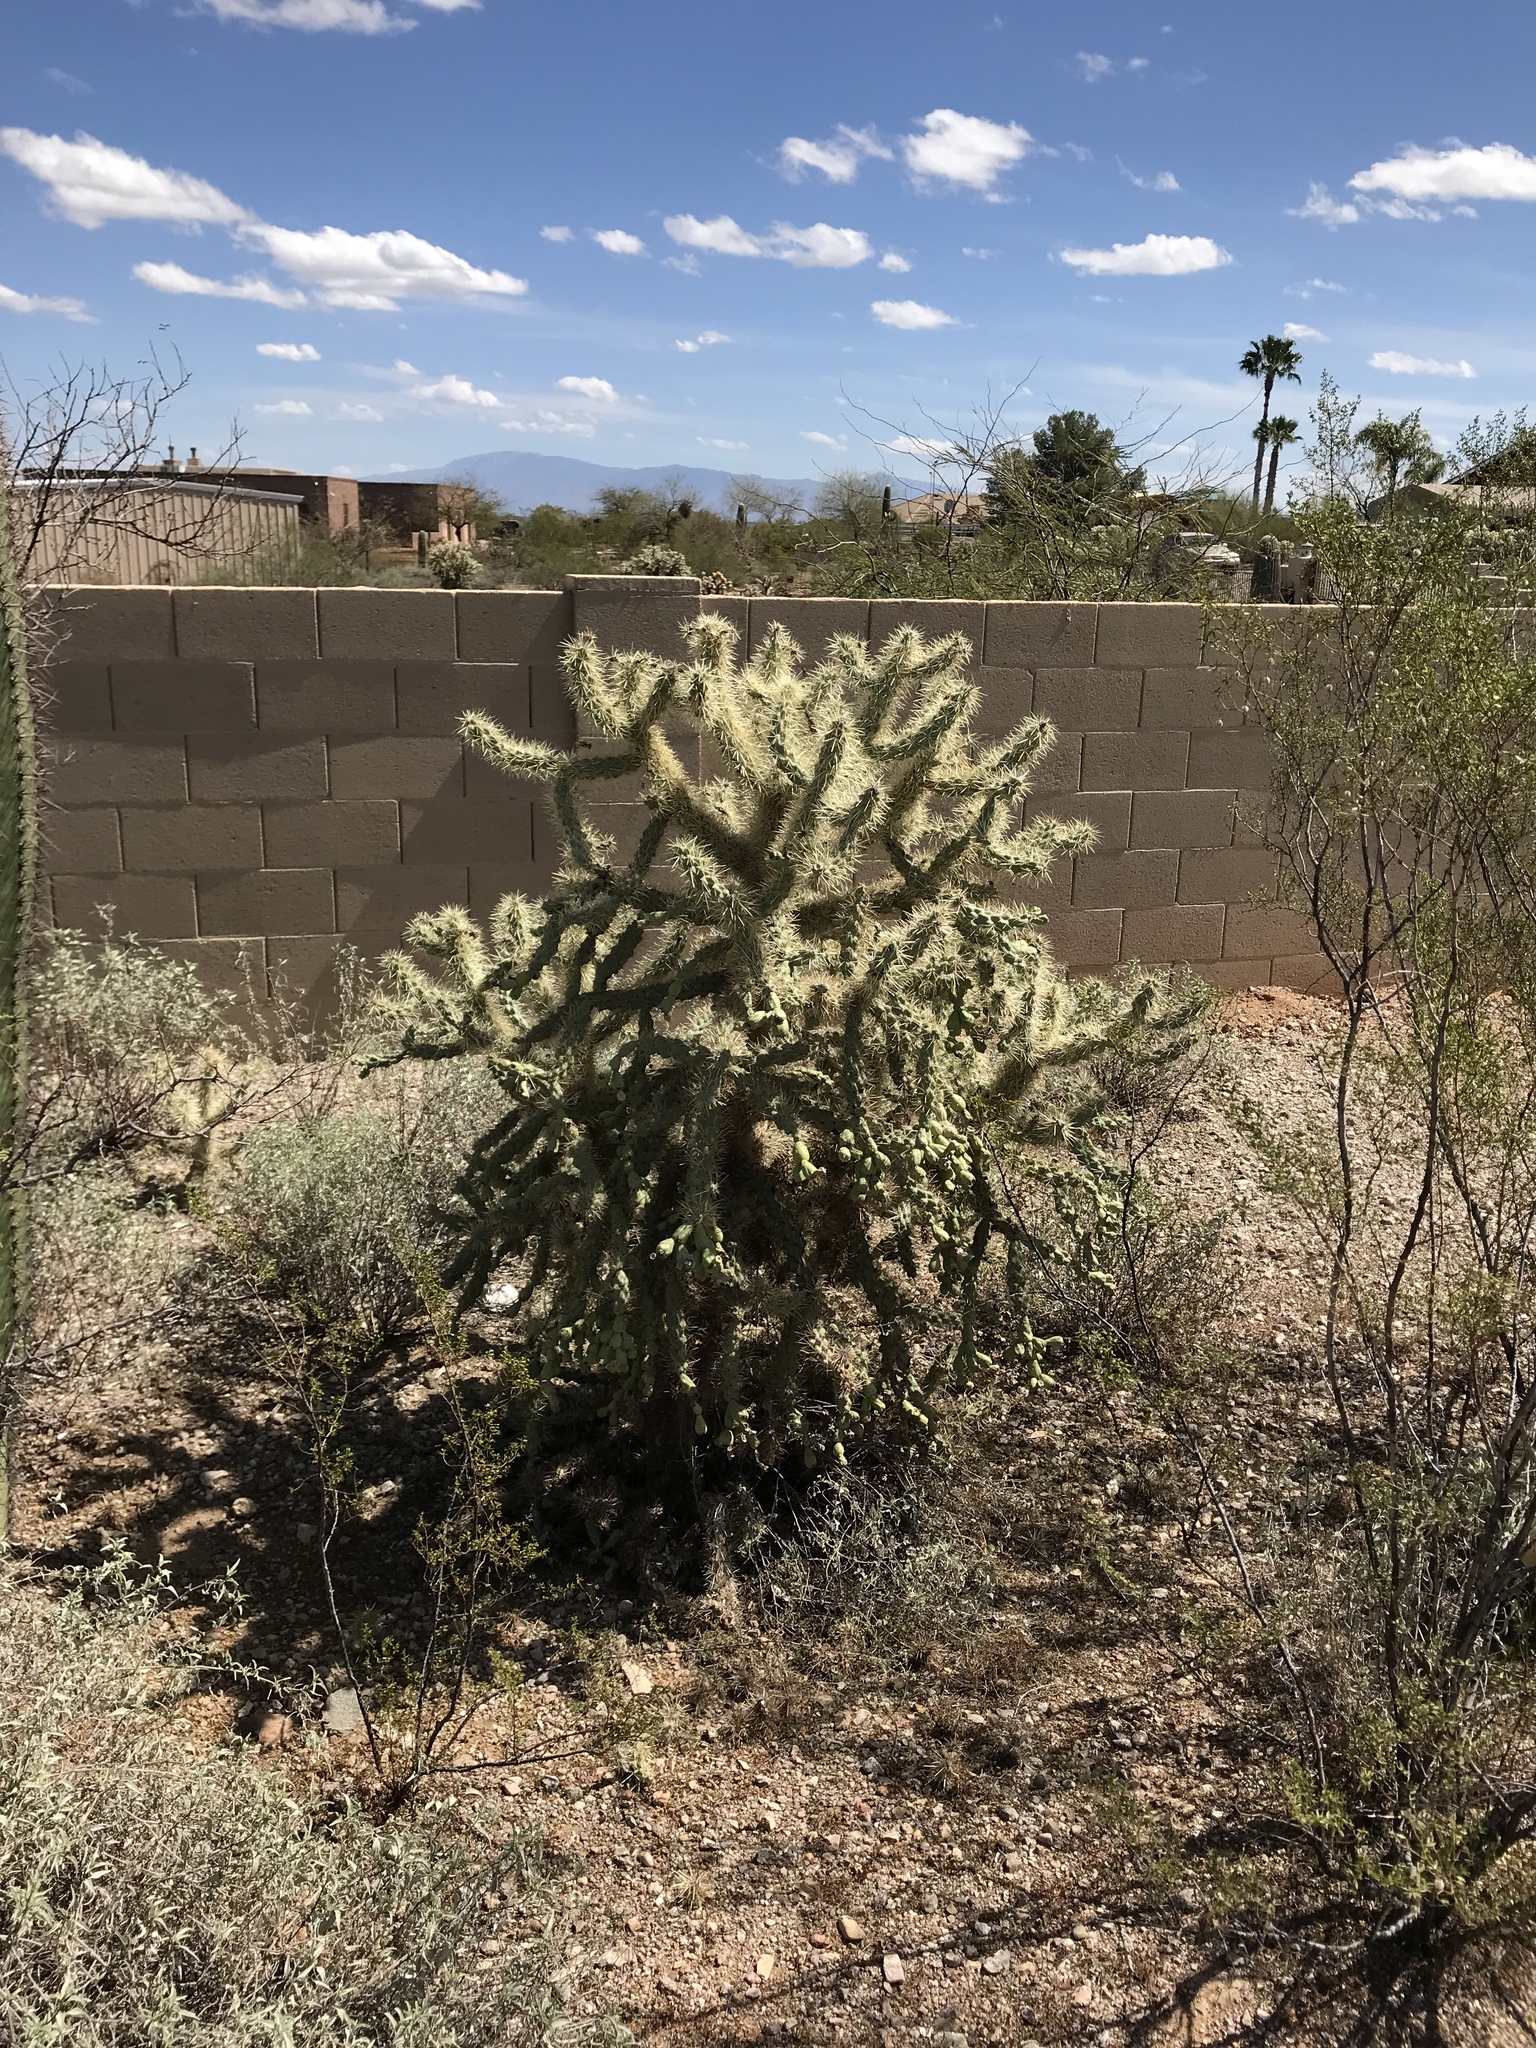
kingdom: Plantae
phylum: Tracheophyta
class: Magnoliopsida
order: Caryophyllales
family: Cactaceae
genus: Cylindropuntia
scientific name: Cylindropuntia fulgida
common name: Jumping cholla
